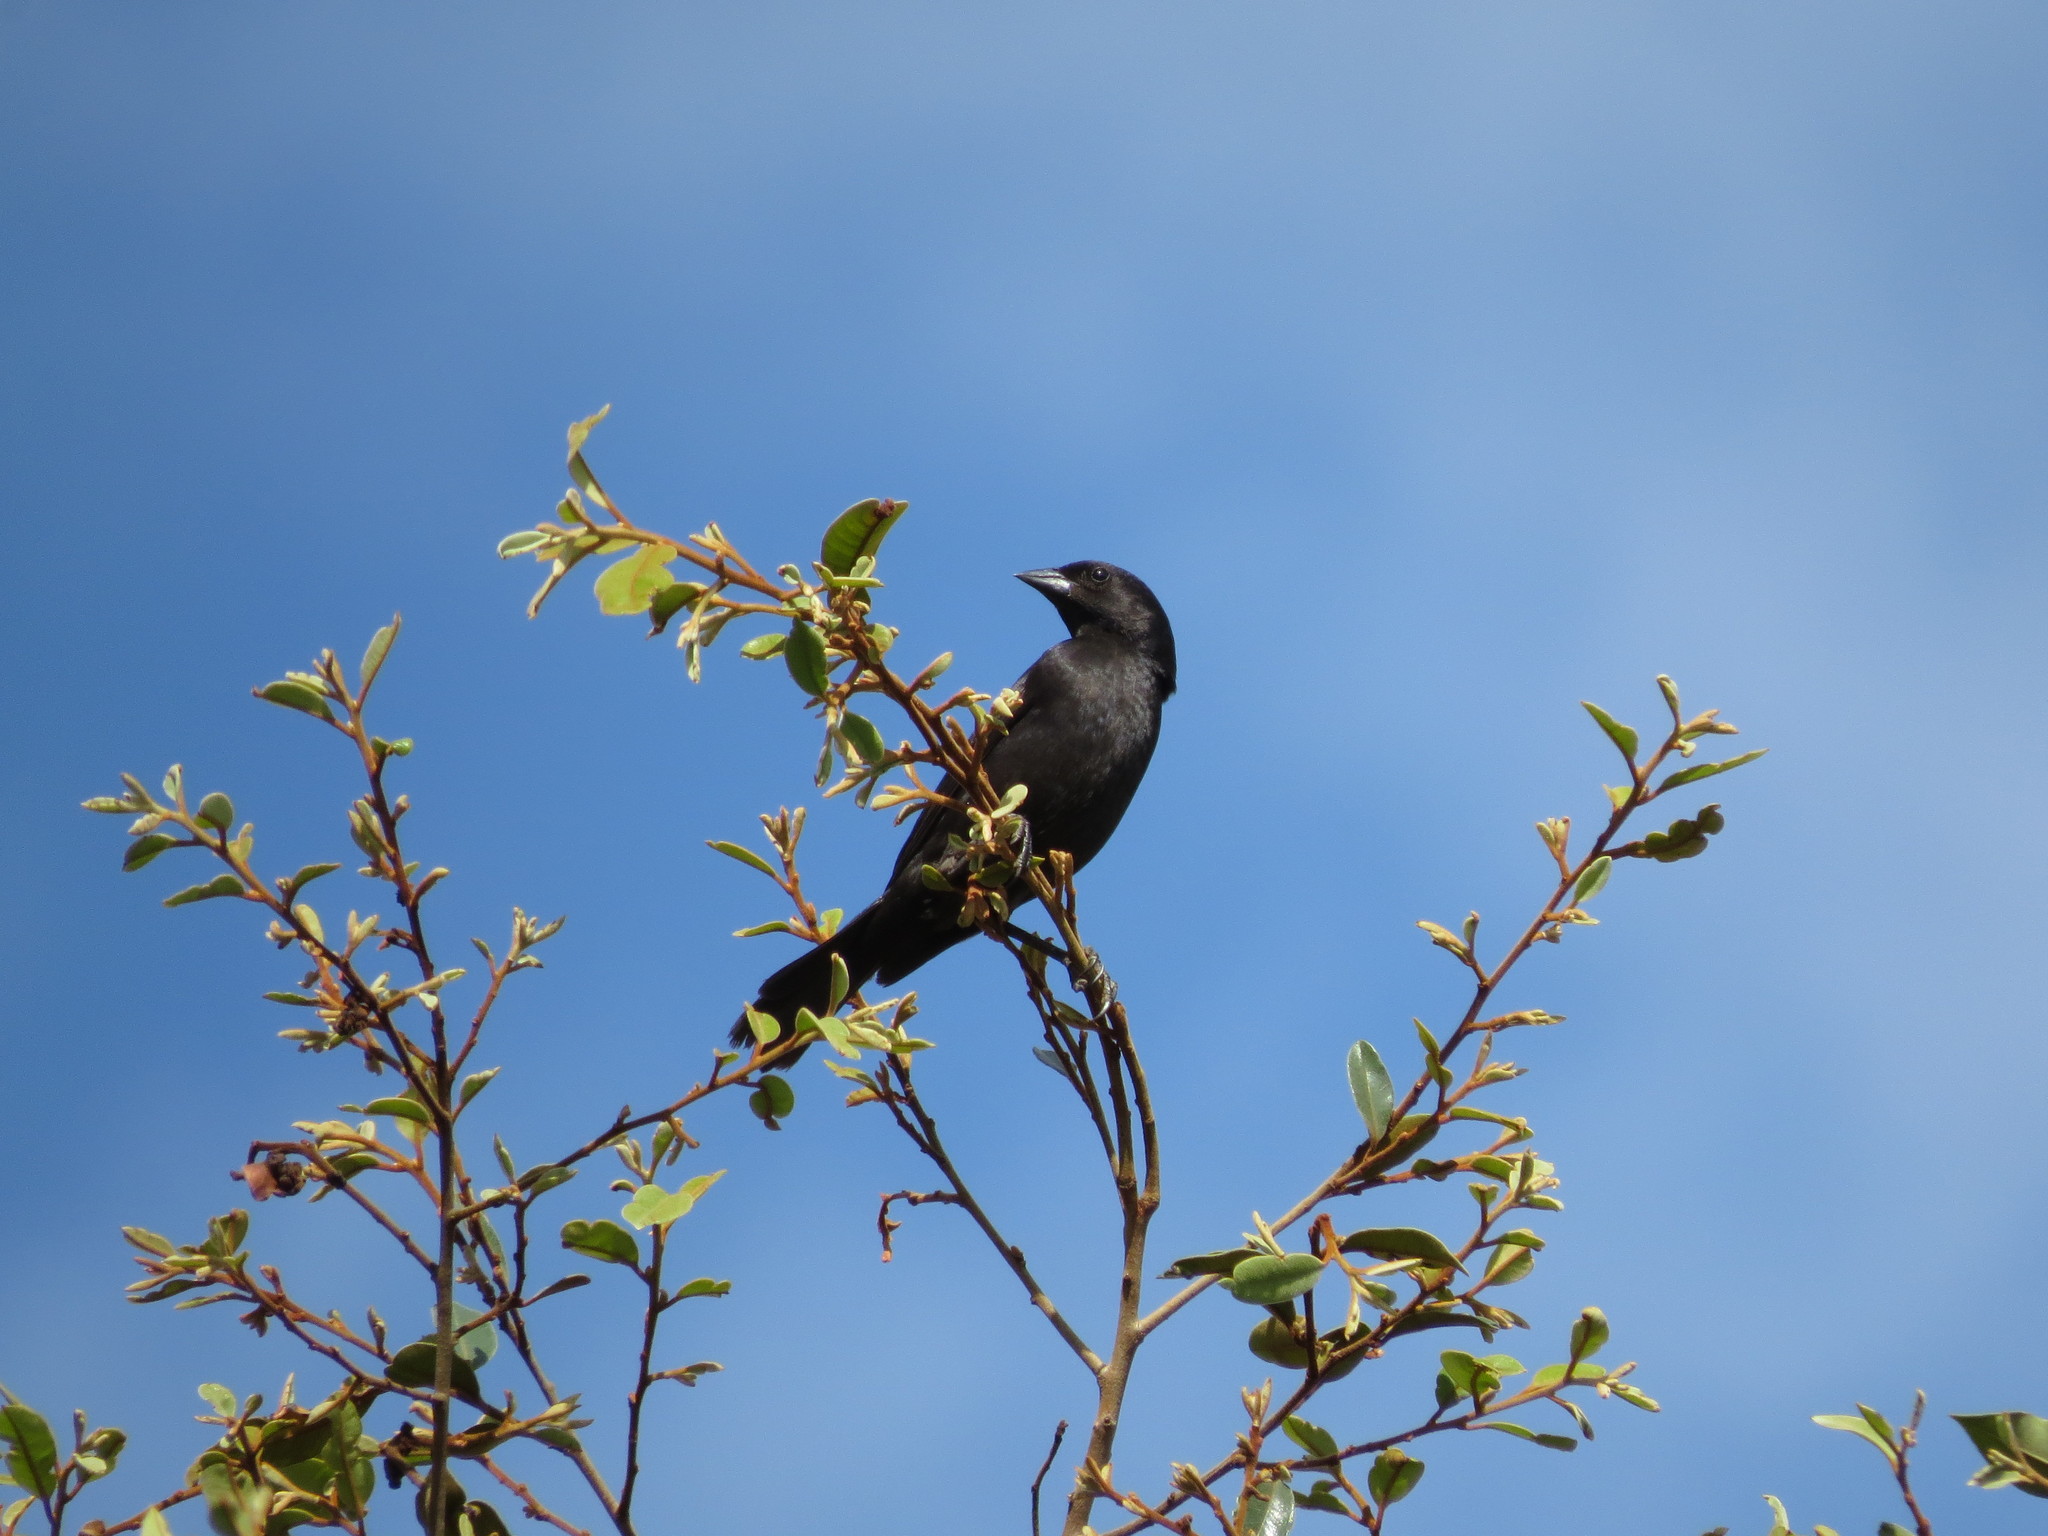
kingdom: Animalia
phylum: Chordata
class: Aves
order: Passeriformes
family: Icteridae
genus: Molothrus
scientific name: Molothrus bonariensis
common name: Shiny cowbird
